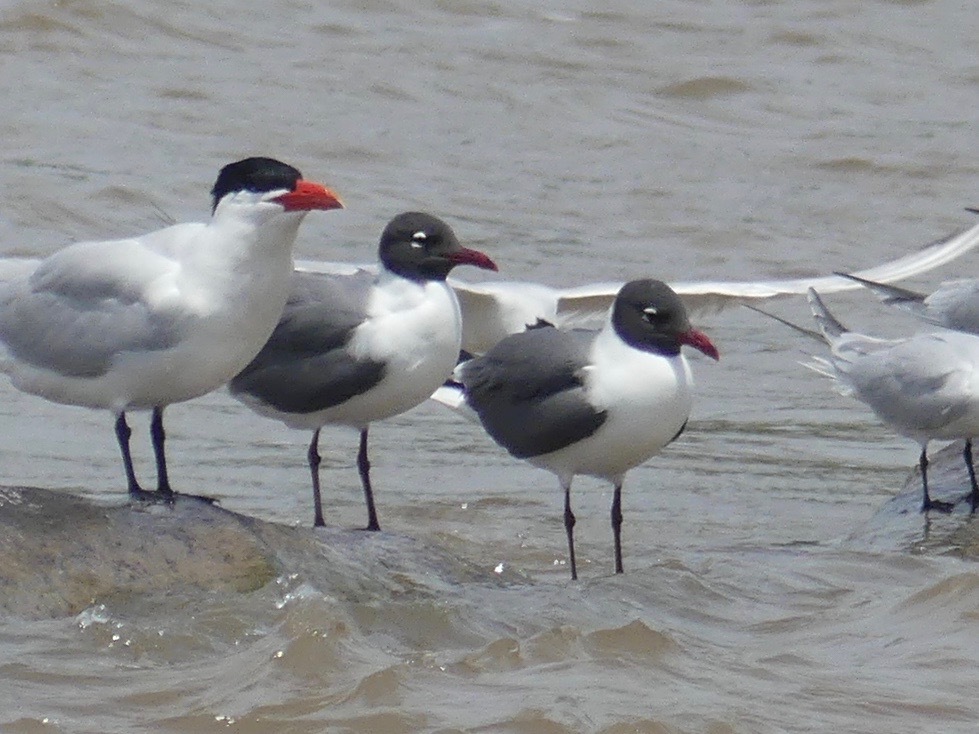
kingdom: Animalia
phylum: Chordata
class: Aves
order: Charadriiformes
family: Laridae
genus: Leucophaeus
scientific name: Leucophaeus atricilla
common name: Laughing gull
